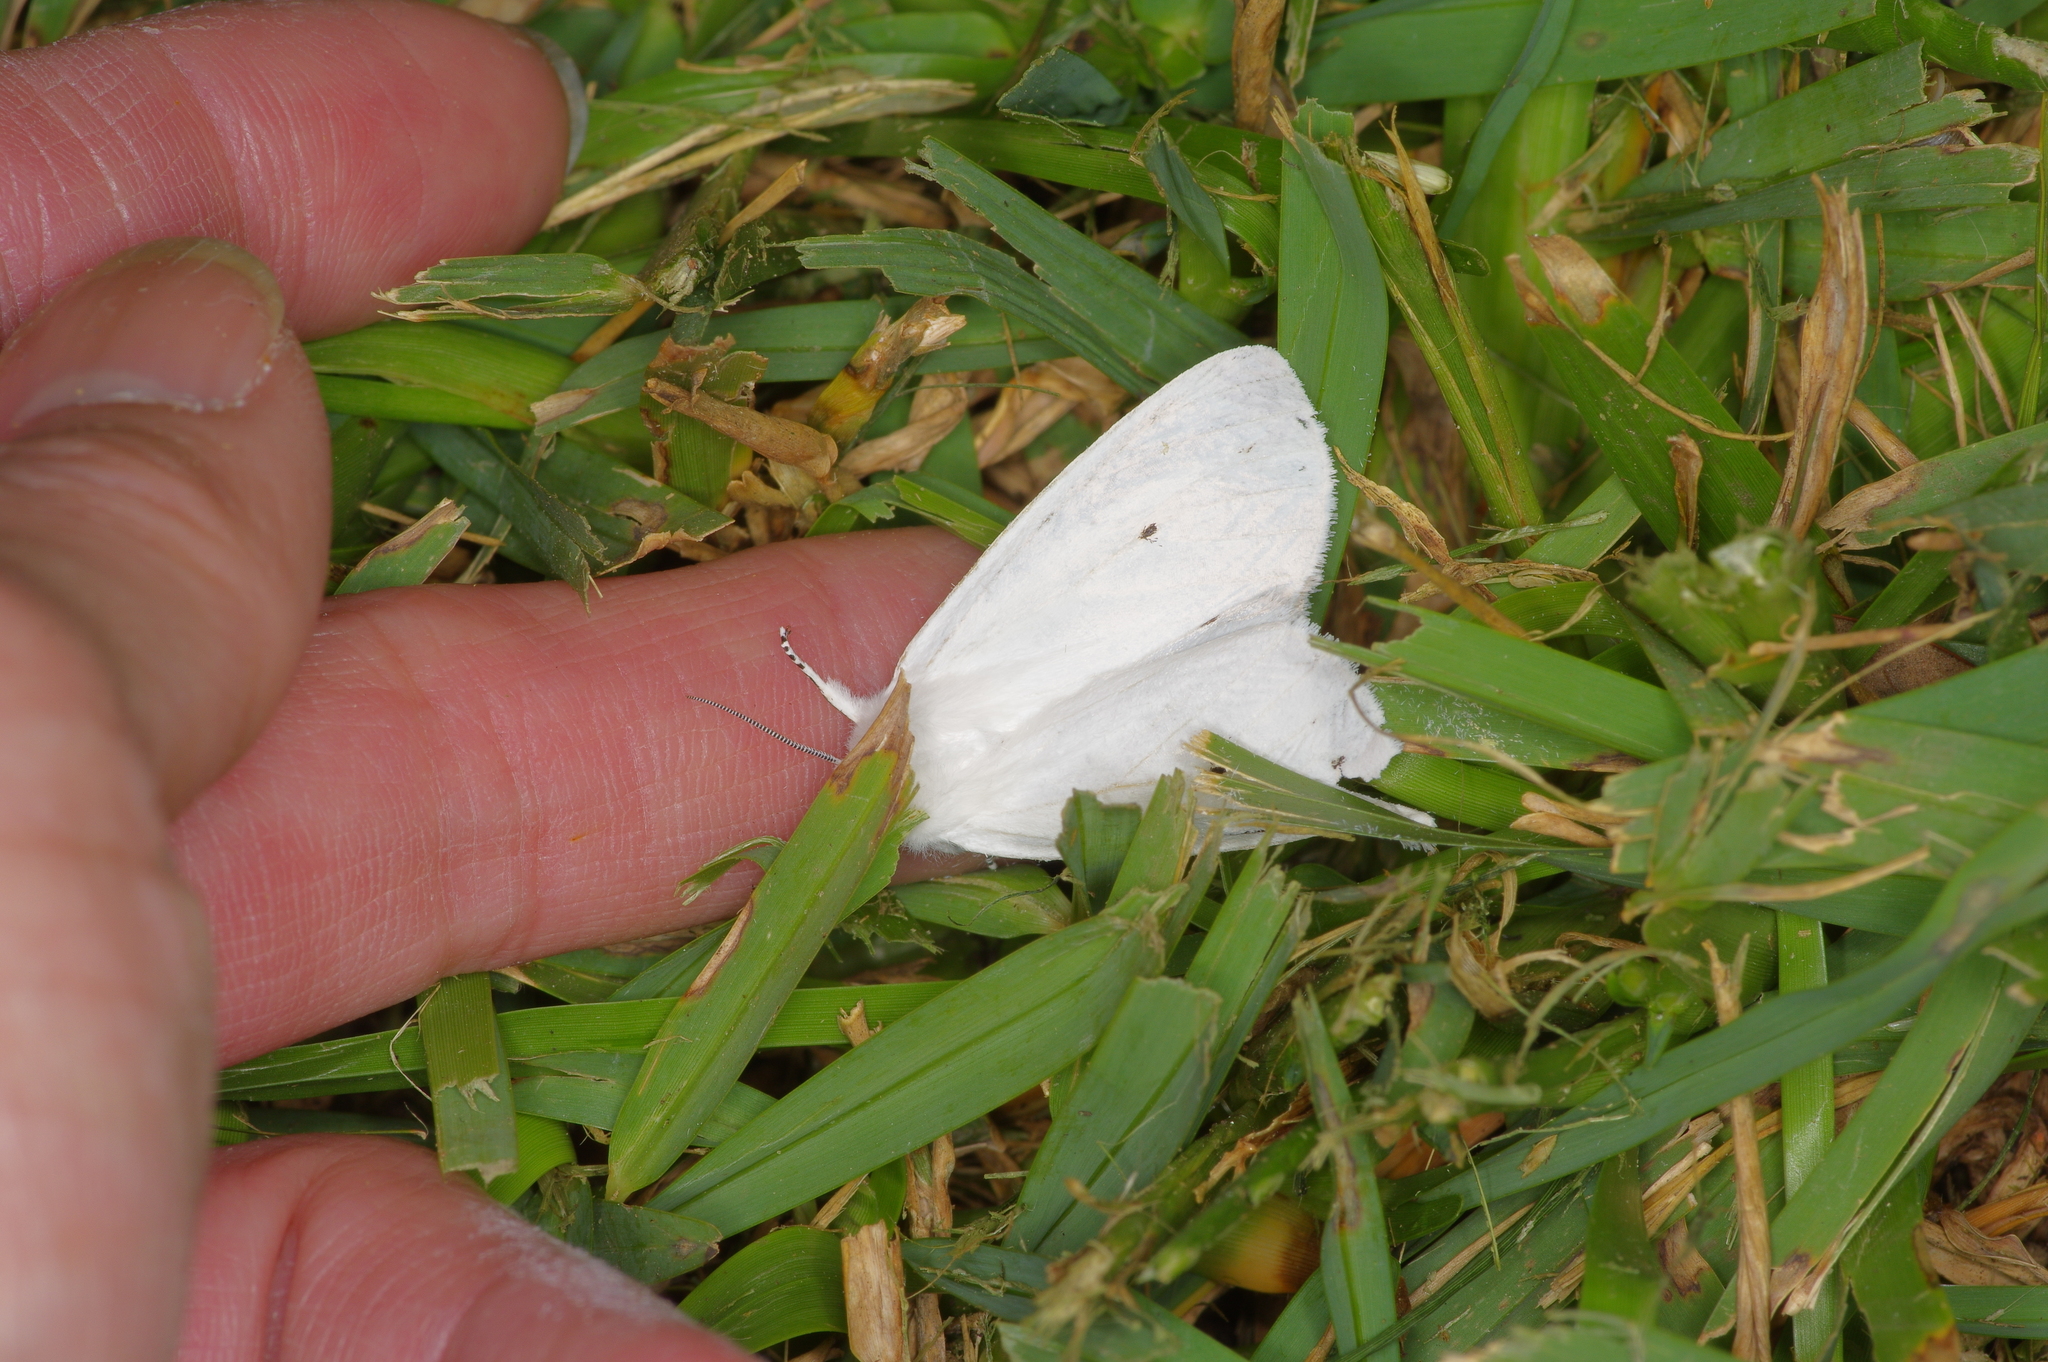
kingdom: Animalia
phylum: Arthropoda
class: Insecta
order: Lepidoptera
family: Erebidae
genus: Spilosoma
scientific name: Spilosoma virginica
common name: Virginia tiger moth
